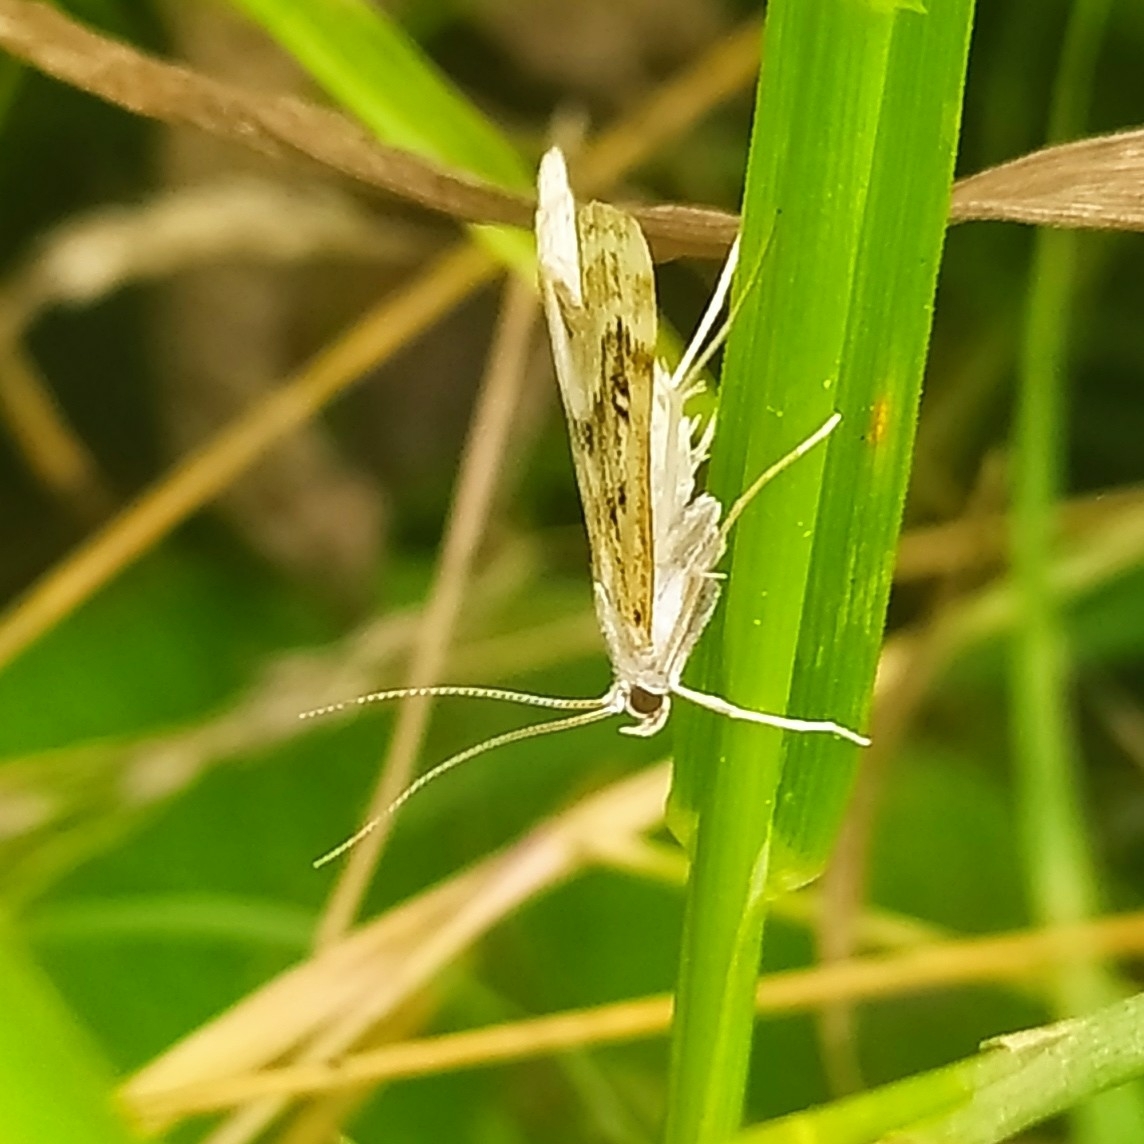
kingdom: Animalia
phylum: Arthropoda
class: Insecta
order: Lepidoptera
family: Crambidae
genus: Parapoynx
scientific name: Parapoynx stratiotata
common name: Ringed china-mark
